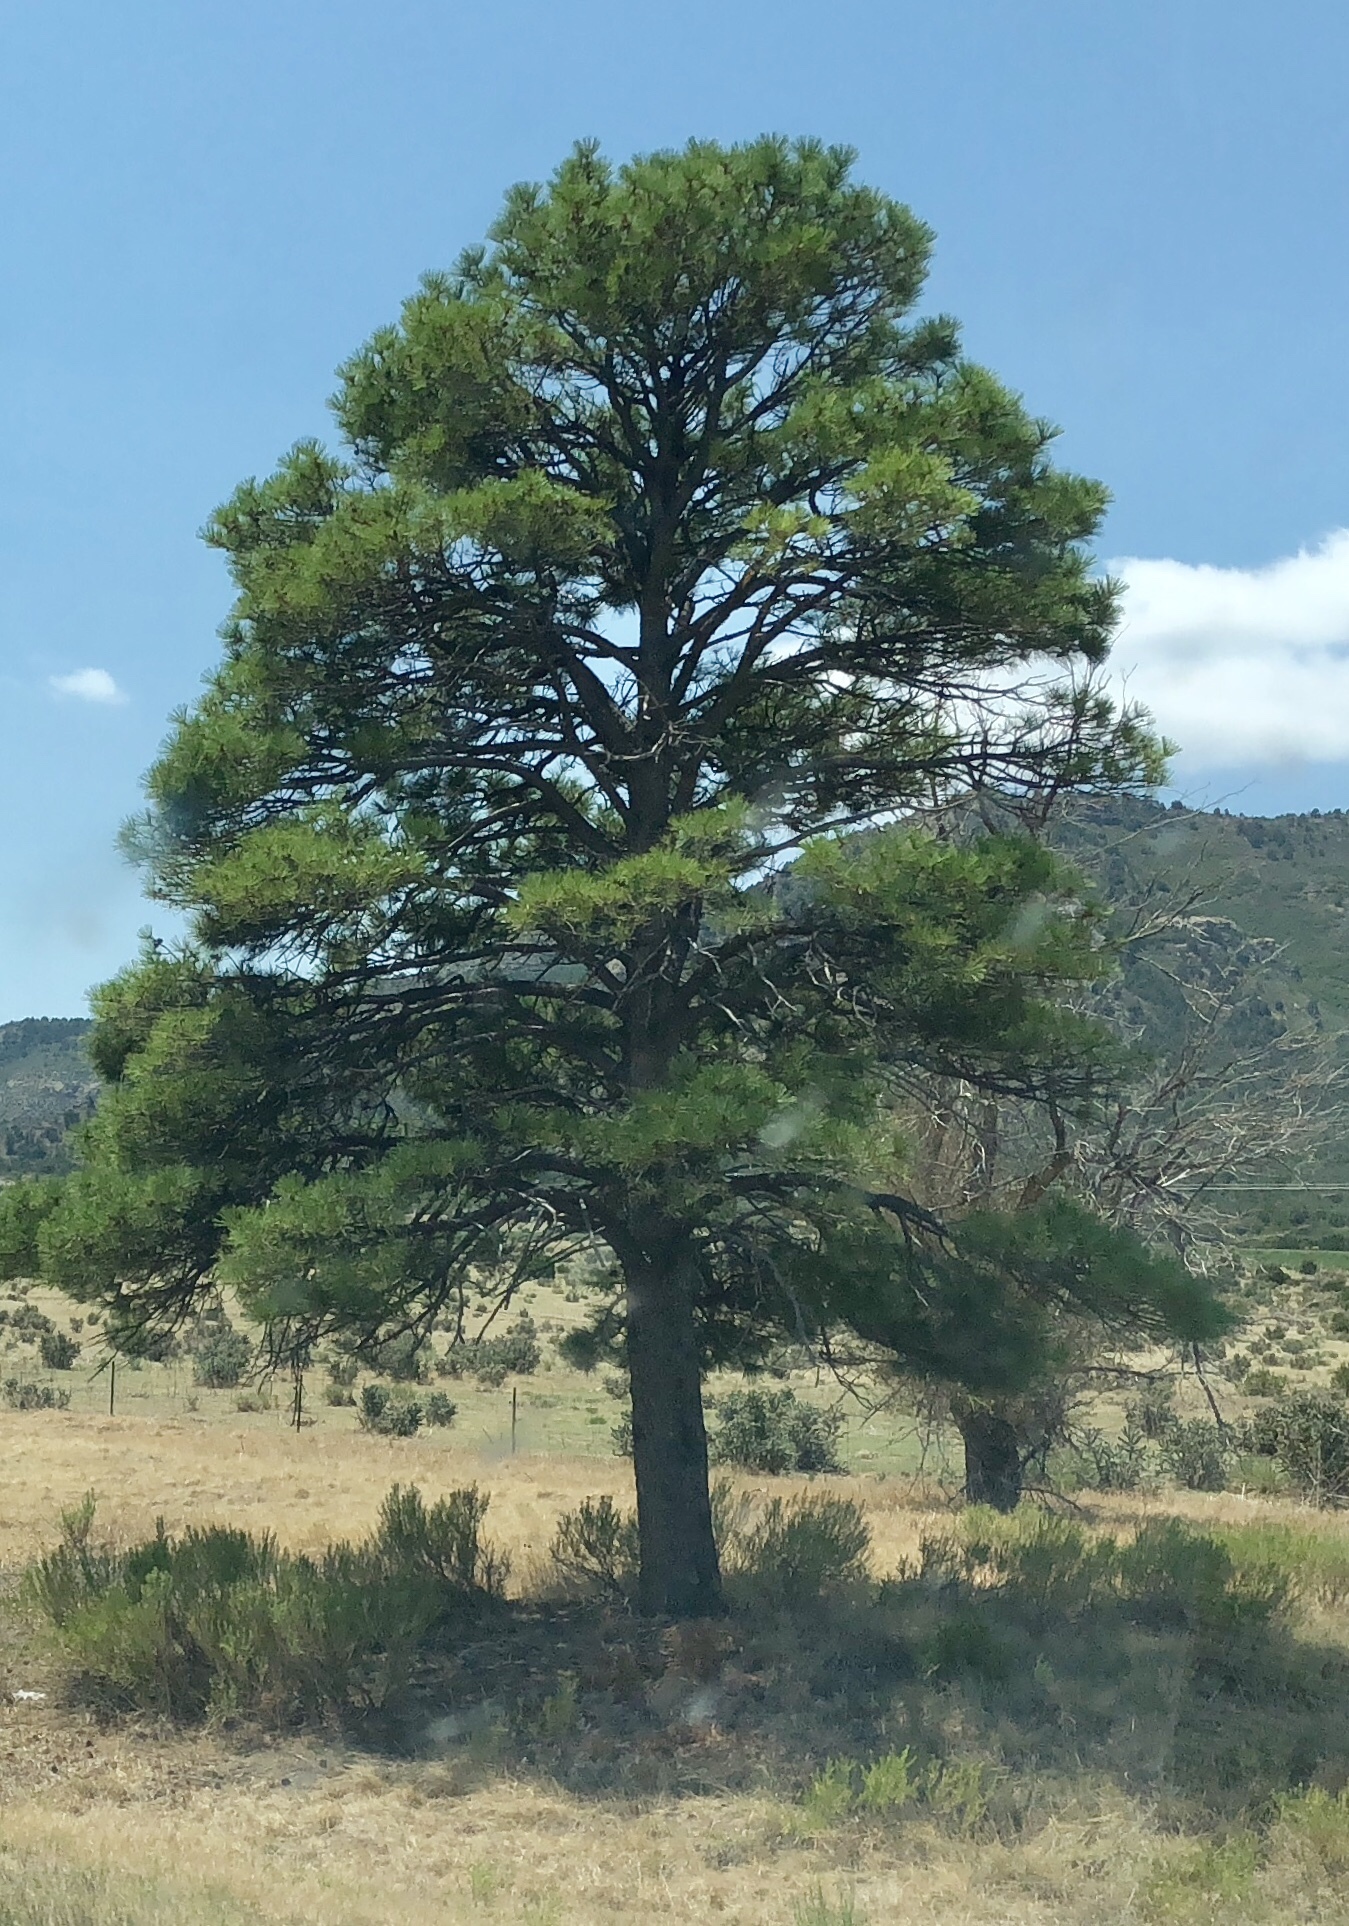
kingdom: Plantae
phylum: Tracheophyta
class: Pinopsida
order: Pinales
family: Pinaceae
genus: Pinus
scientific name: Pinus ponderosa
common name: Western yellow-pine
